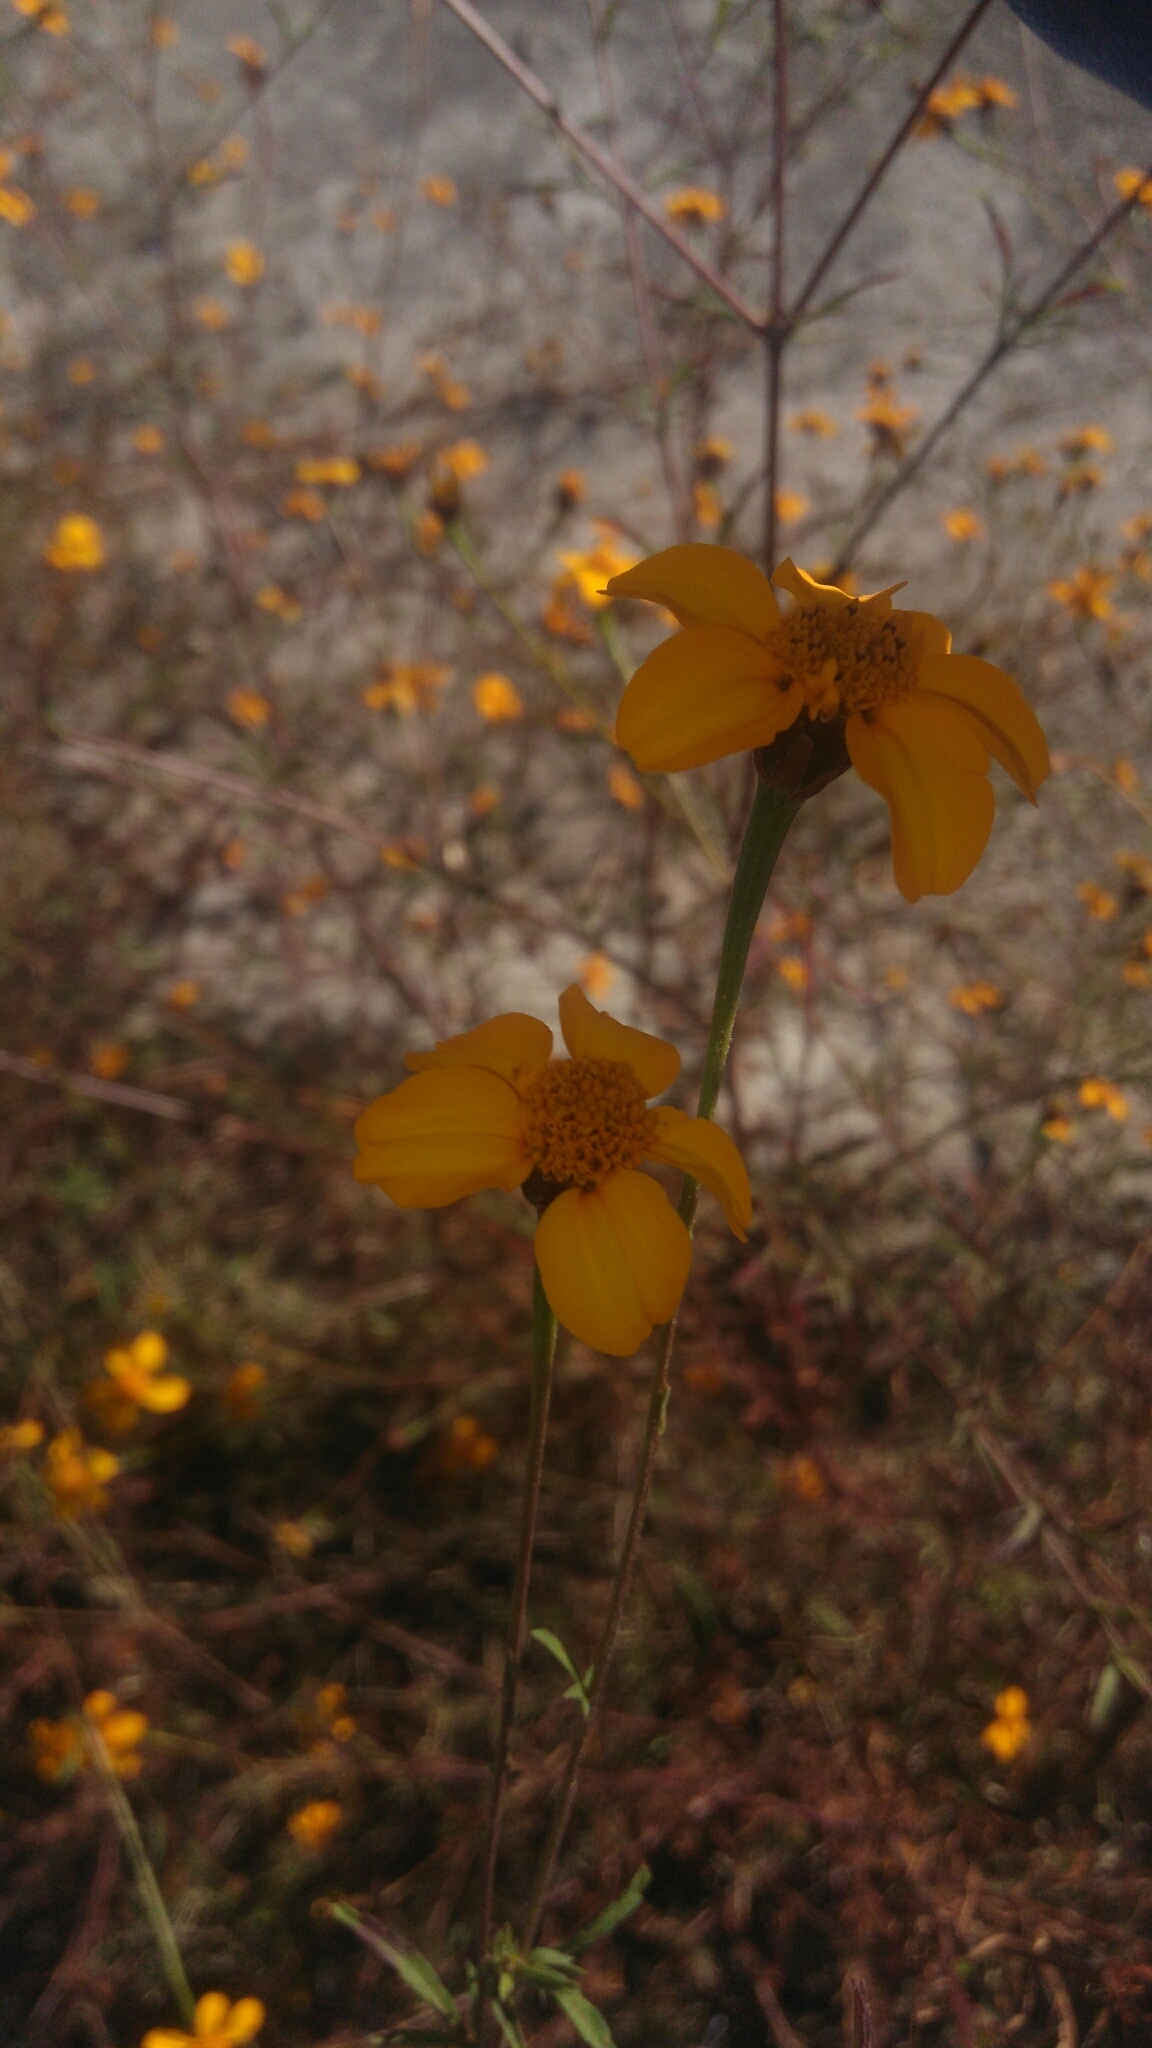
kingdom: Plantae
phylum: Tracheophyta
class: Magnoliopsida
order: Asterales
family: Asteraceae
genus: Dyssodia
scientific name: Dyssodia tagetiflora
